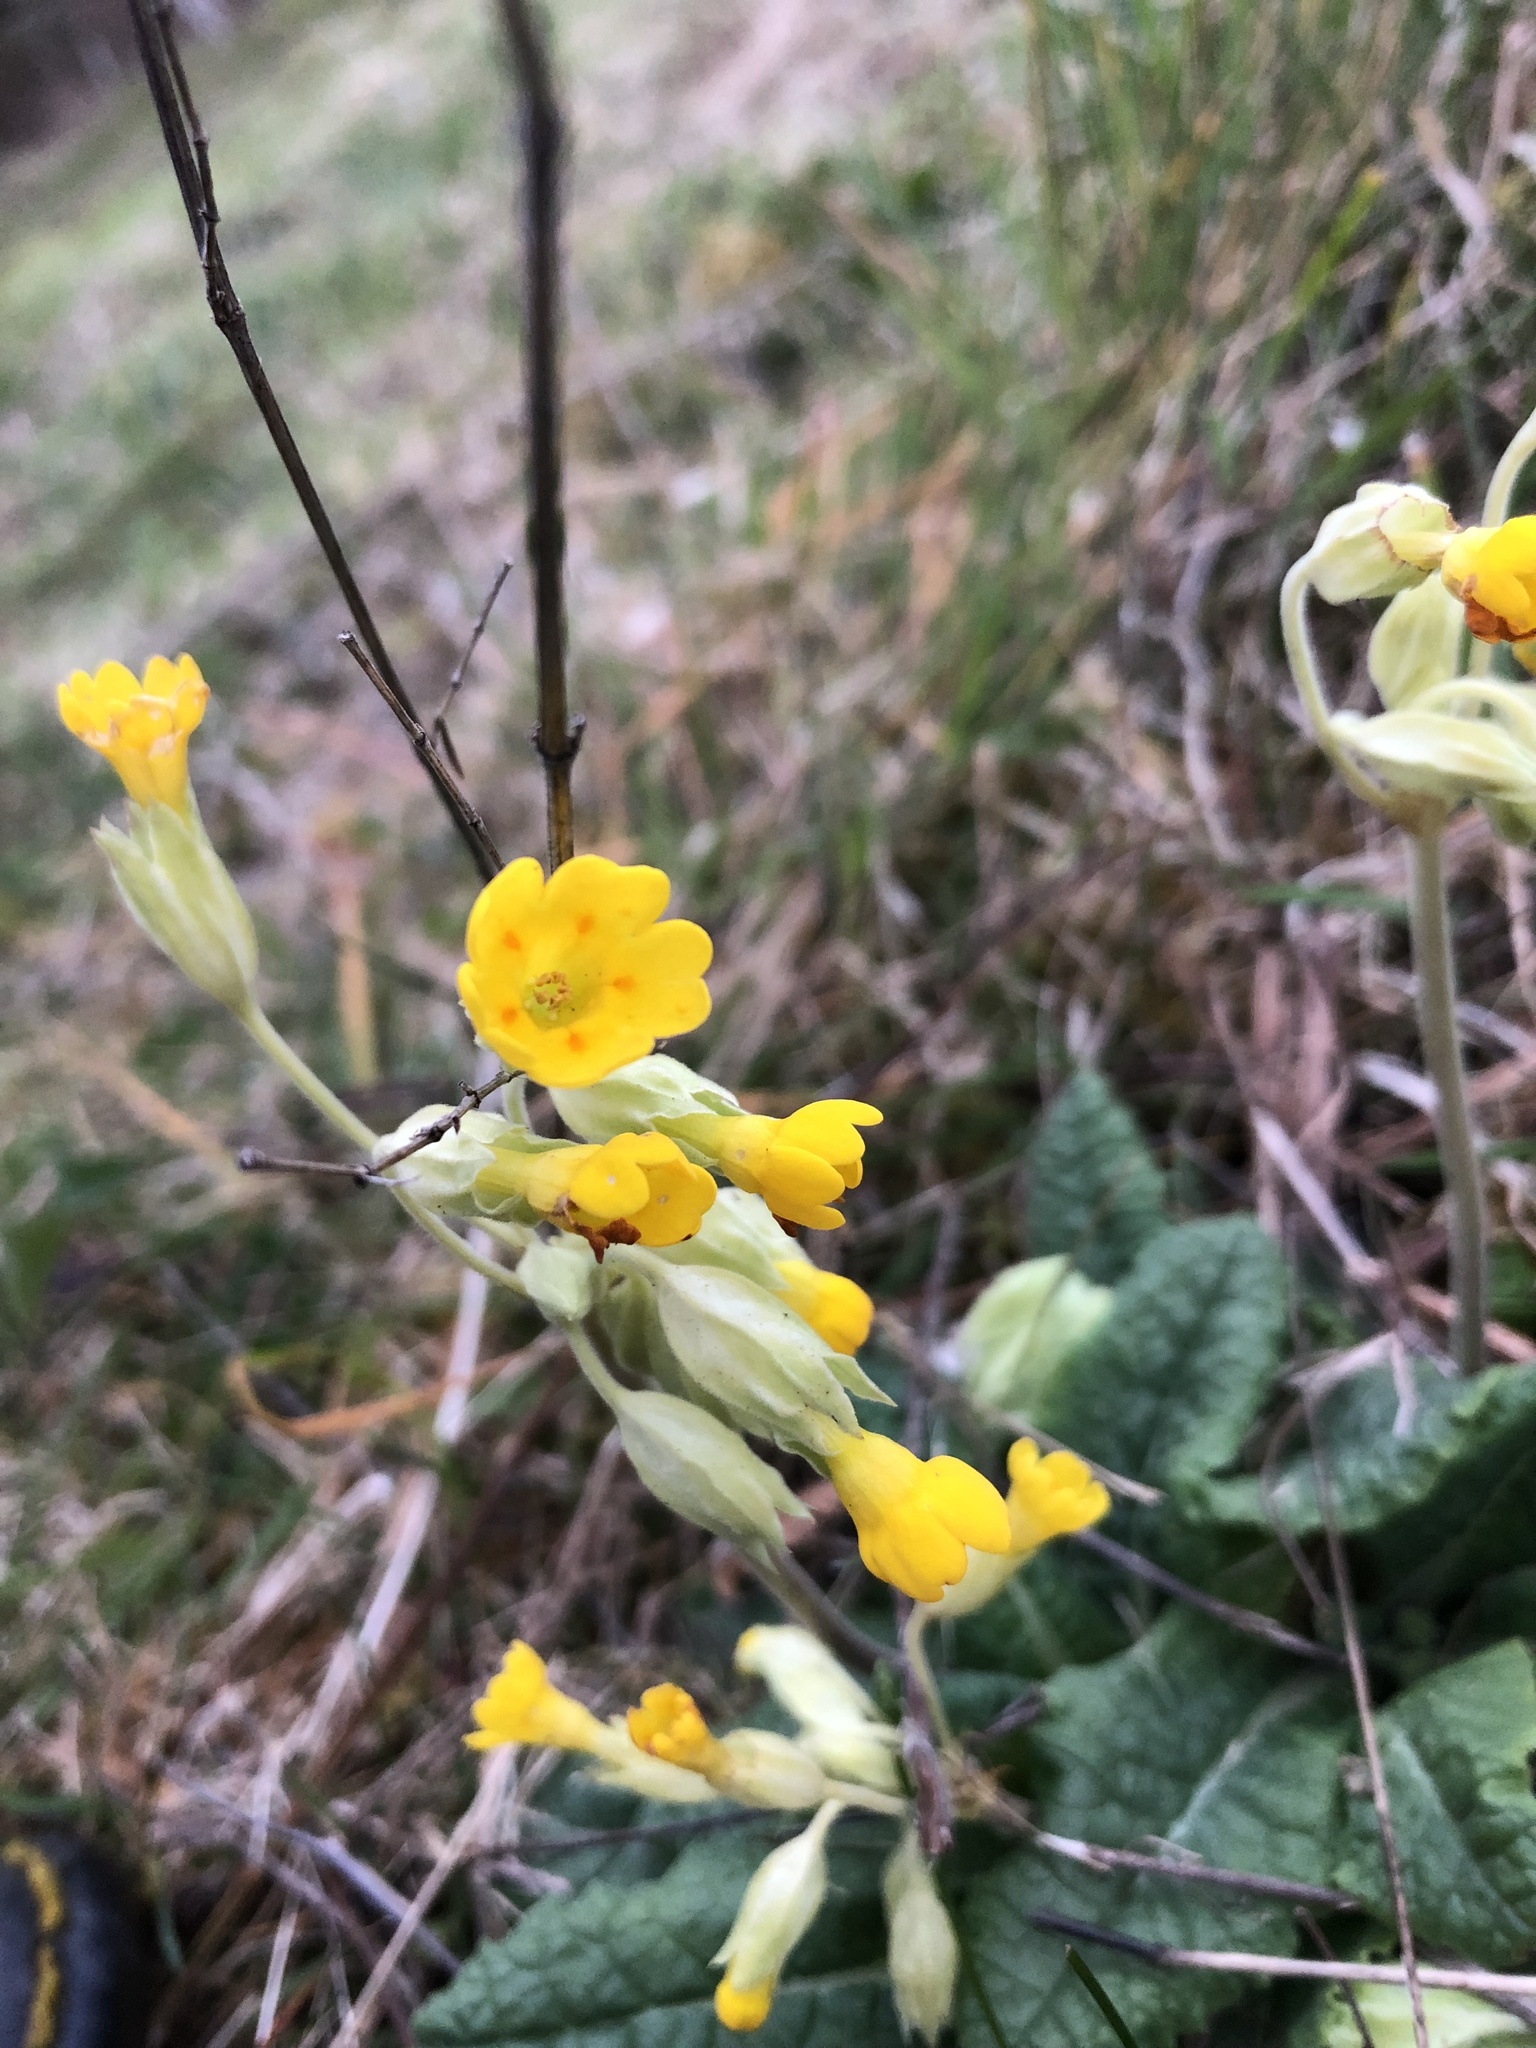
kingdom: Plantae
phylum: Tracheophyta
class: Magnoliopsida
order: Ericales
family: Primulaceae
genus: Primula
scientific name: Primula veris
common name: Cowslip
